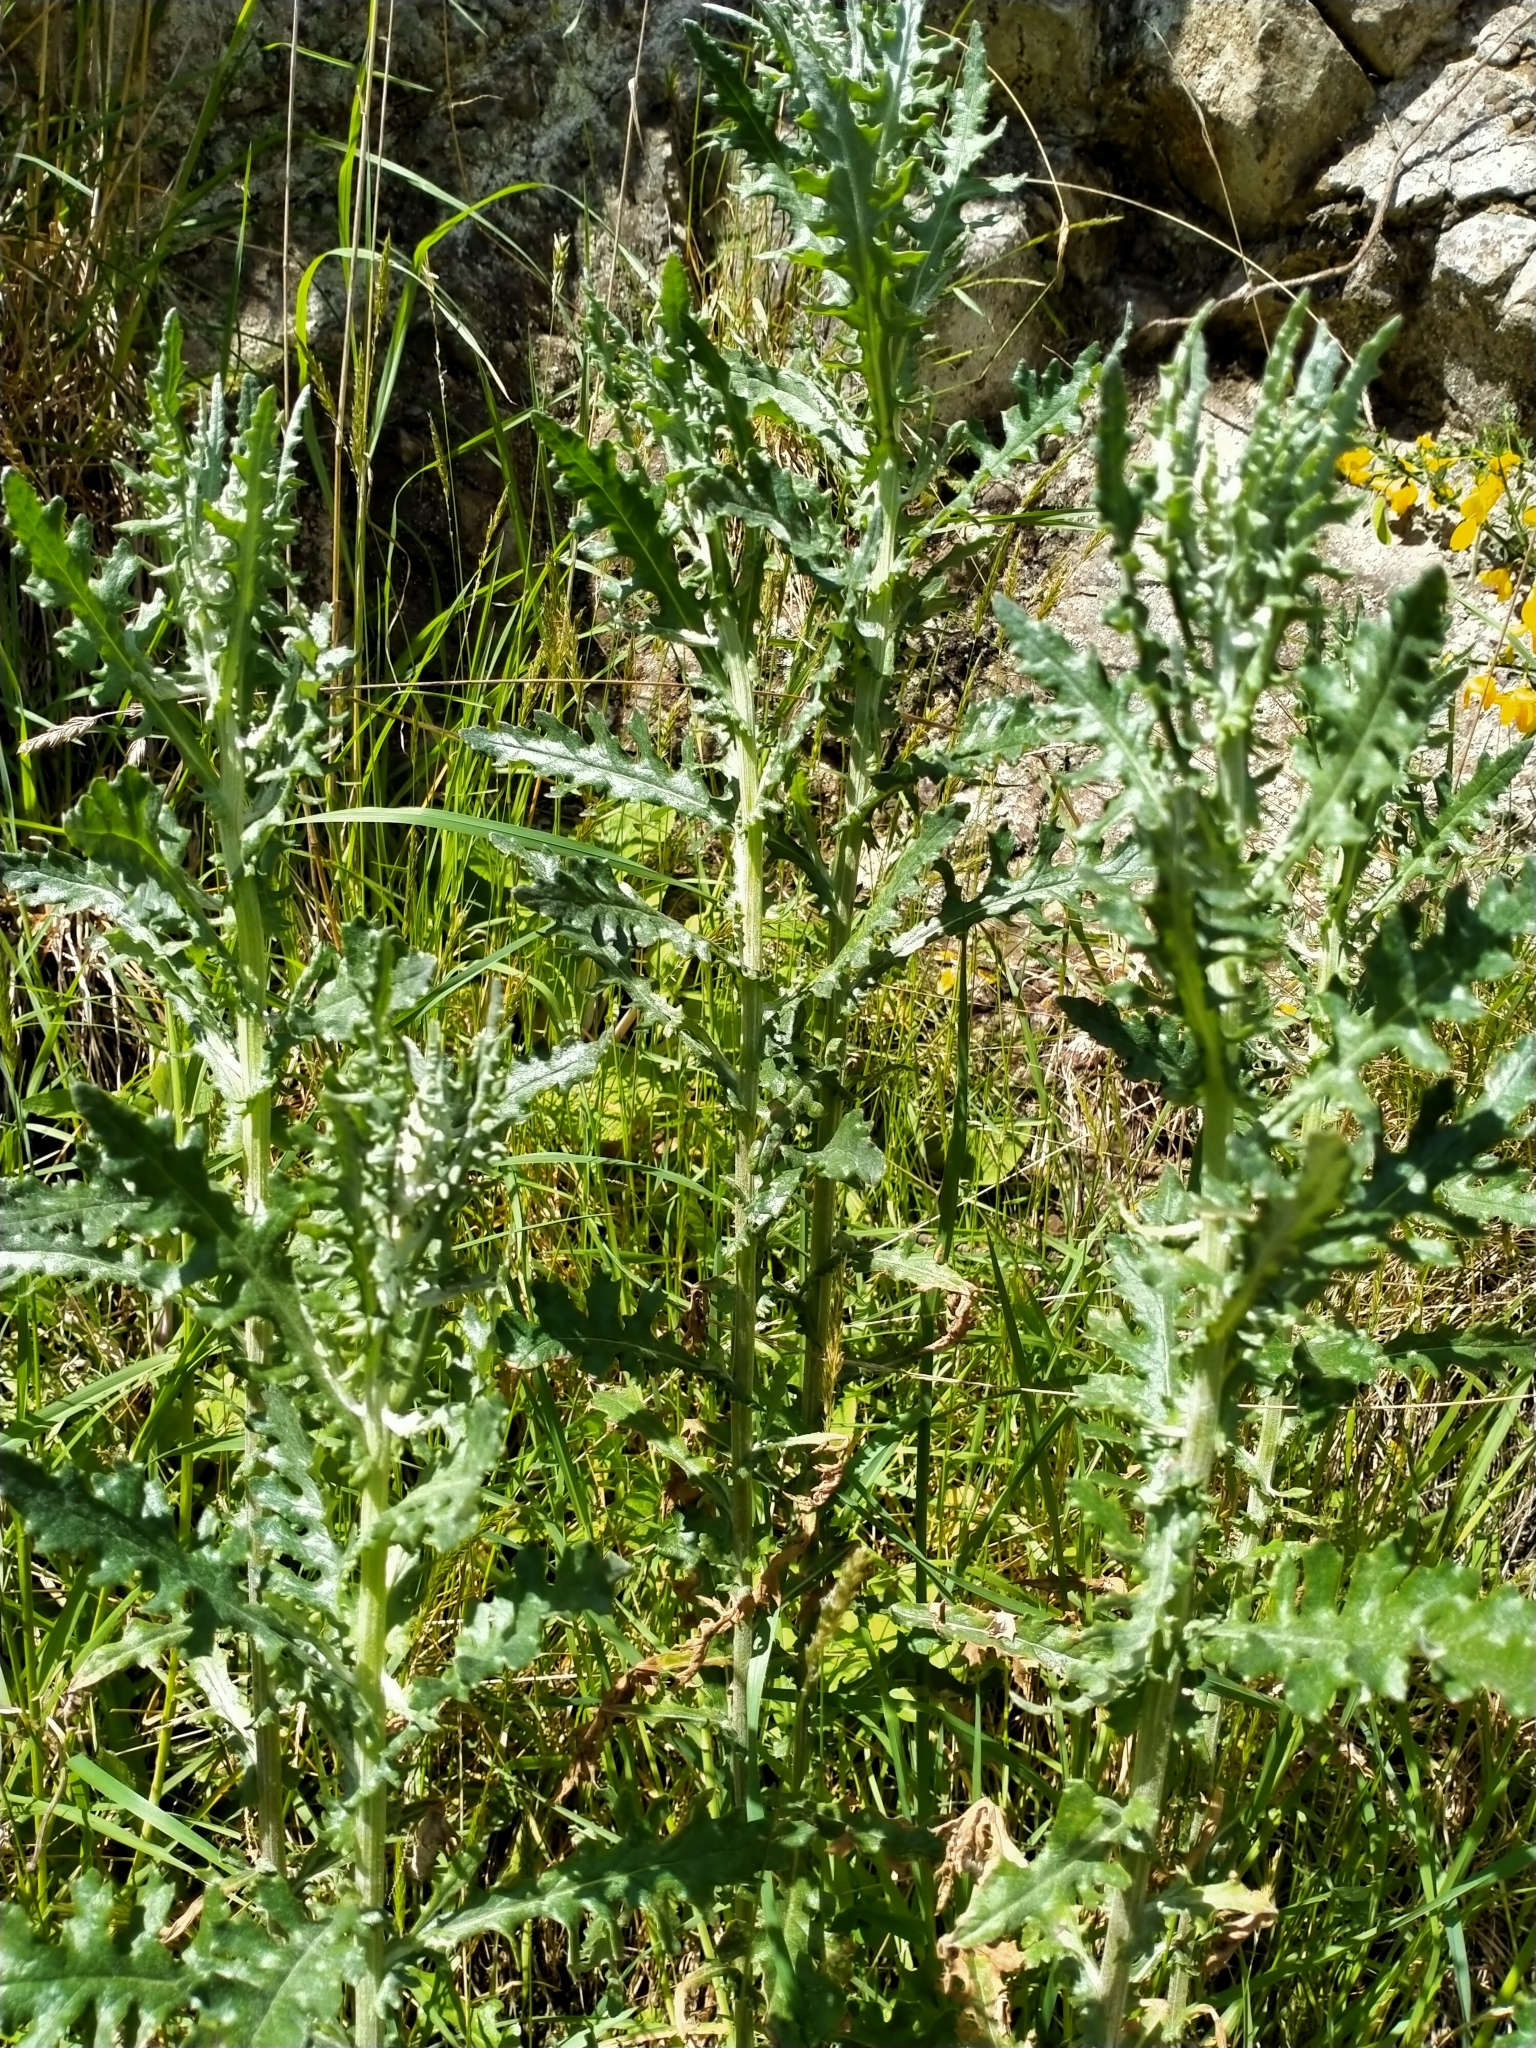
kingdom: Plantae
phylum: Tracheophyta
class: Magnoliopsida
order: Asterales
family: Asteraceae
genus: Senecio
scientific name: Senecio glomeratus
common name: Cutleaf burnweed
